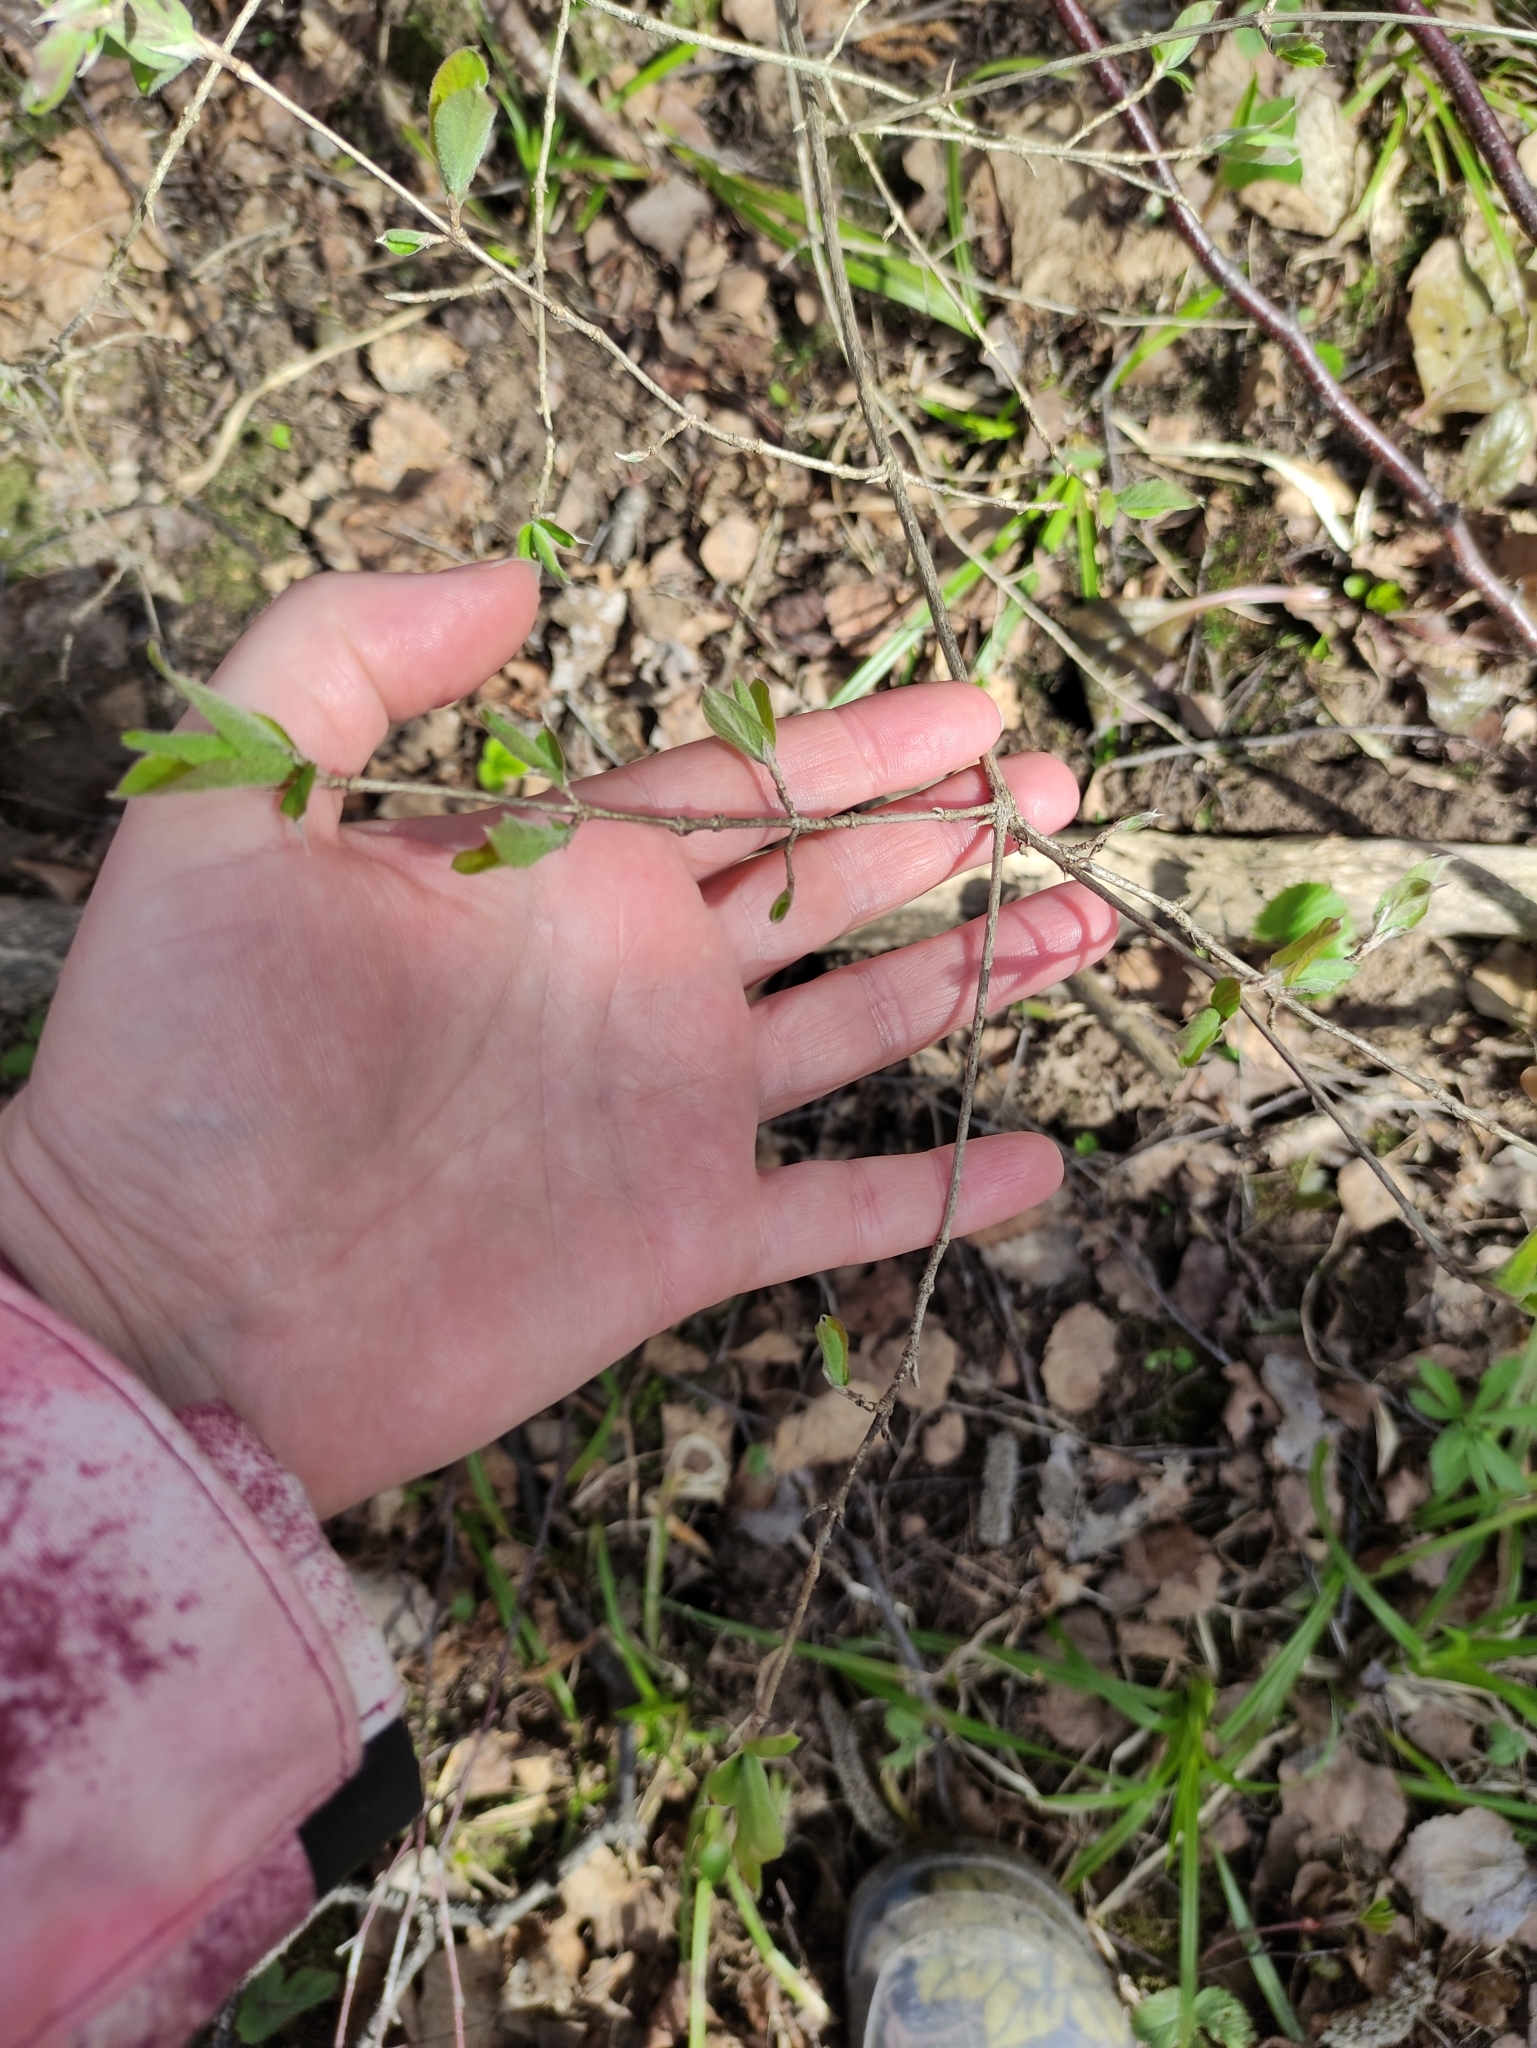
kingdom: Plantae
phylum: Tracheophyta
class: Magnoliopsida
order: Dipsacales
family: Caprifoliaceae
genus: Lonicera
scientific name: Lonicera xylosteum
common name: Fly honeysuckle
